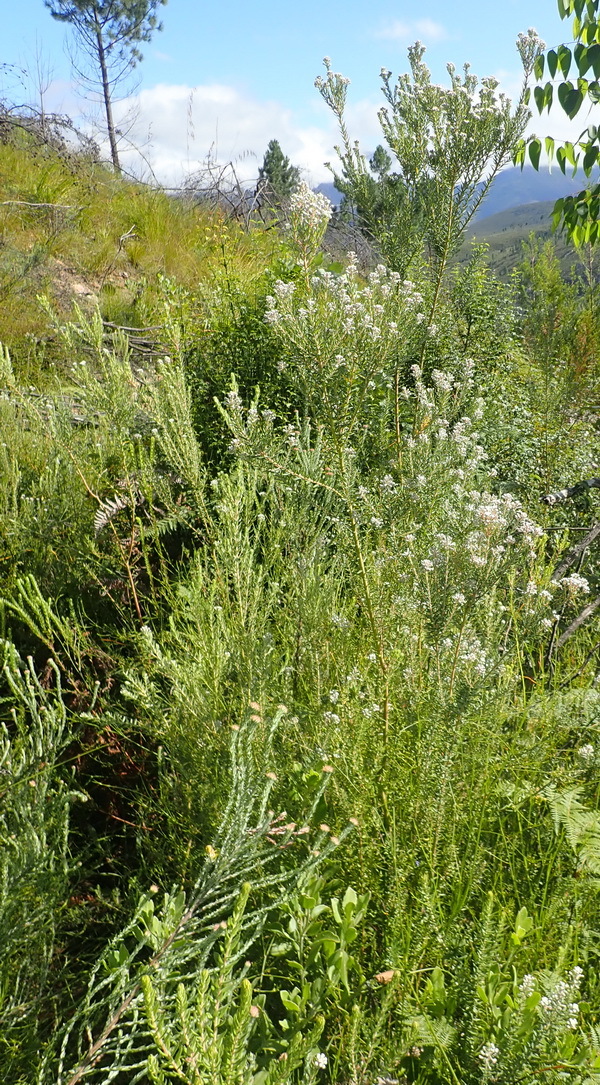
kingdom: Plantae
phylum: Tracheophyta
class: Magnoliopsida
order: Rosales
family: Rhamnaceae
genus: Phylica
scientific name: Phylica pinea
